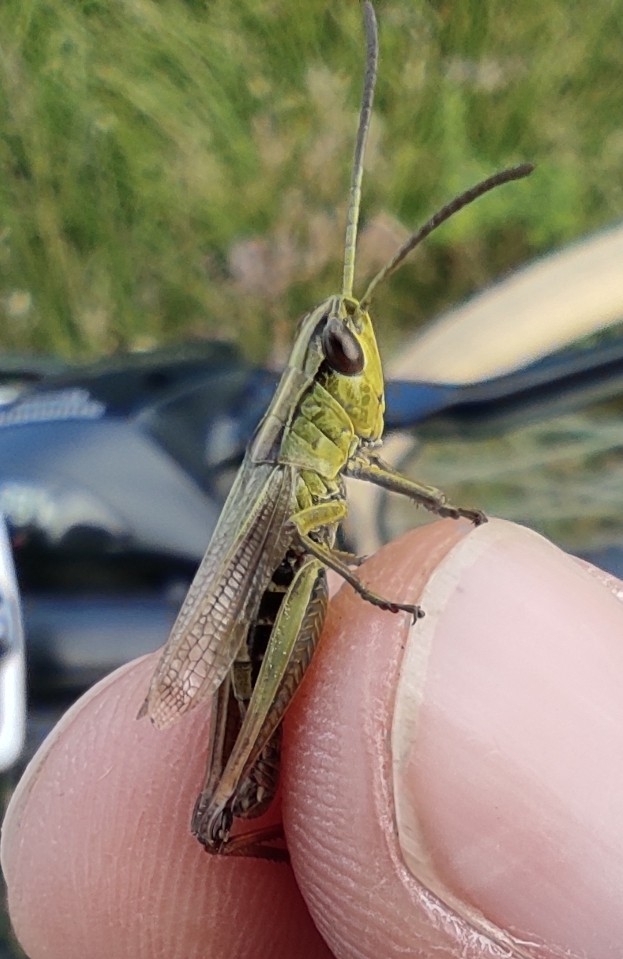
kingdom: Animalia
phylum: Arthropoda
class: Insecta
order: Orthoptera
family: Acrididae
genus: Pseudochorthippus
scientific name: Pseudochorthippus parallelus
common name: Meadow grasshopper
